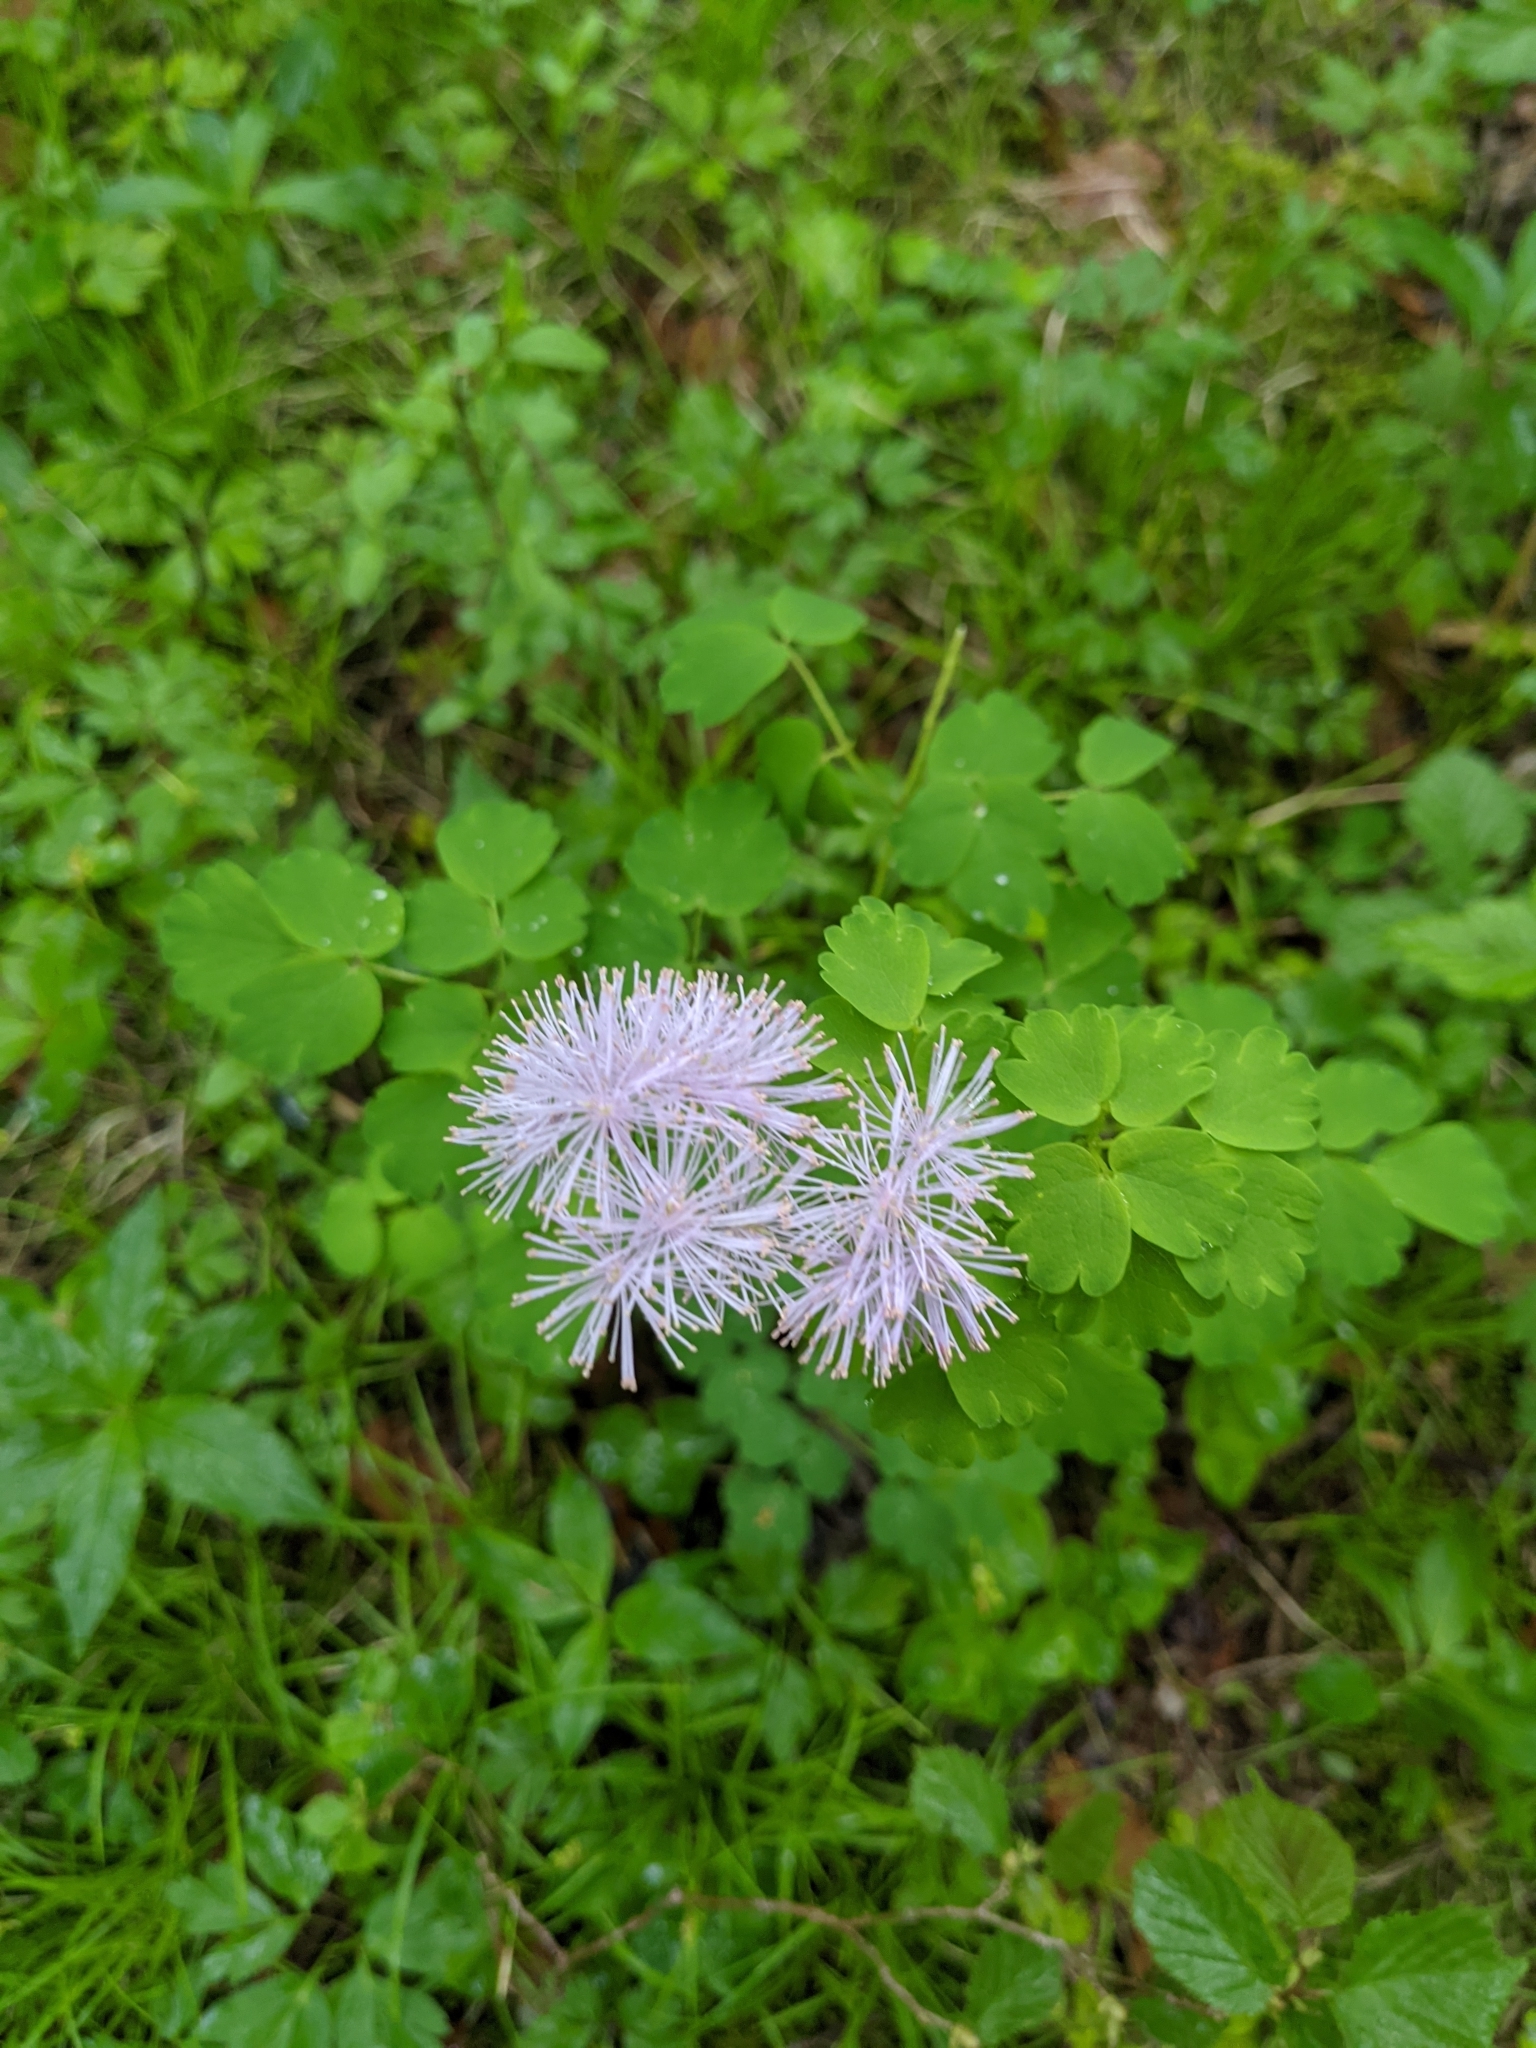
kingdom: Plantae
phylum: Tracheophyta
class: Magnoliopsida
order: Ranunculales
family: Ranunculaceae
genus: Thalictrum
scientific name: Thalictrum aquilegiifolium
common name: French meadow-rue
